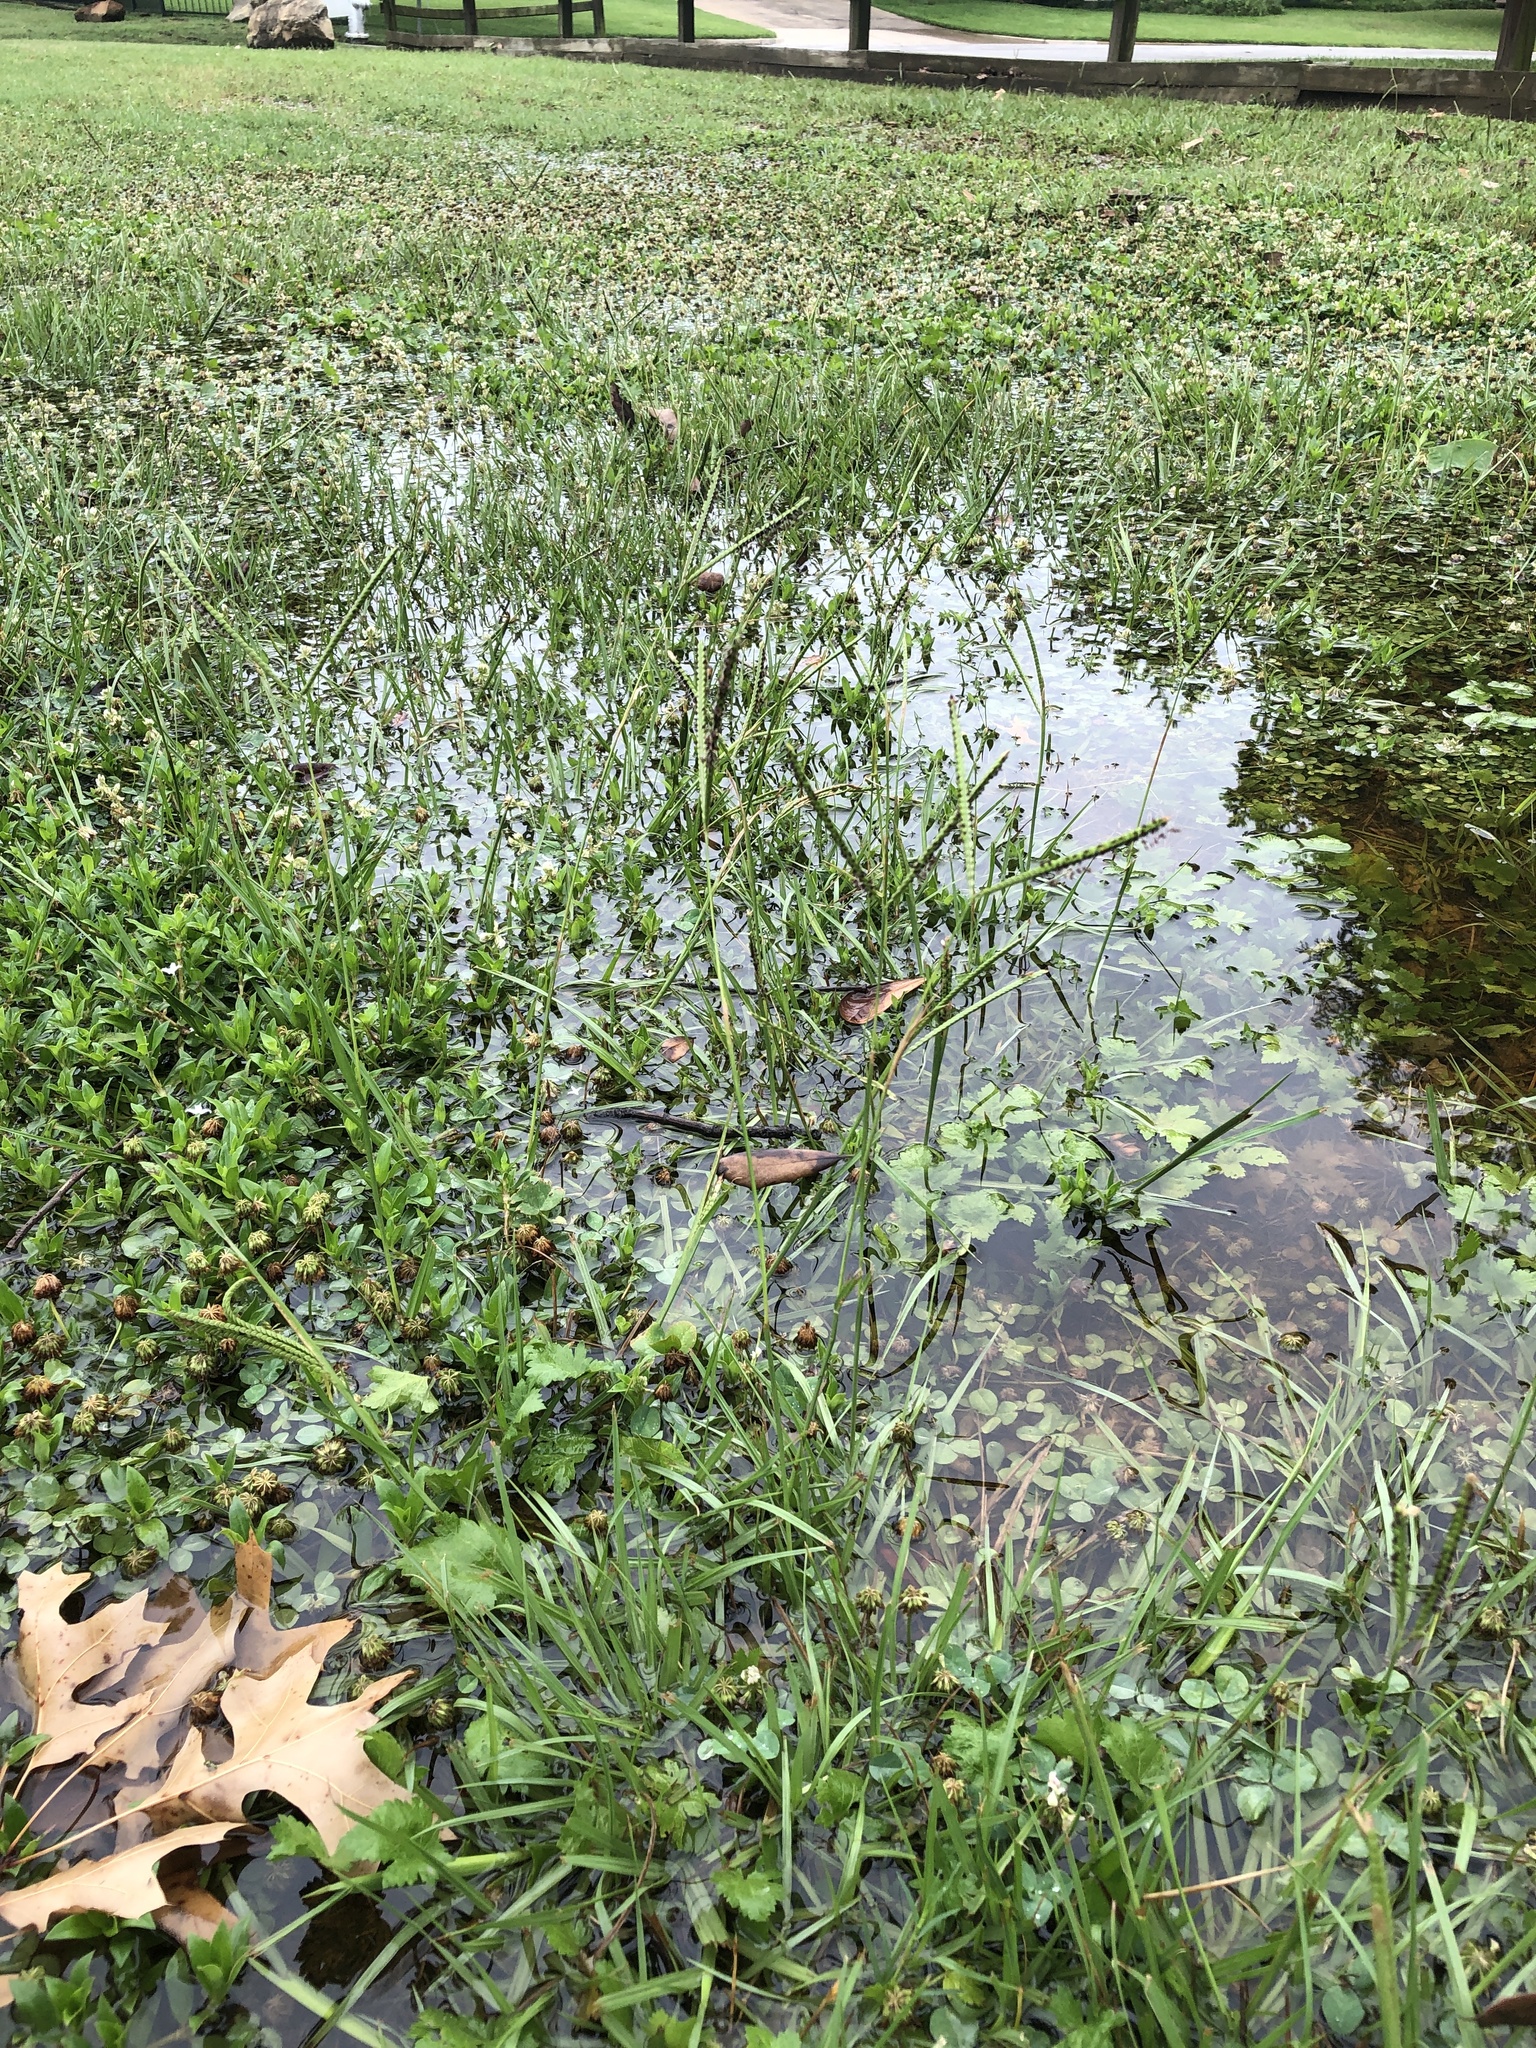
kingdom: Plantae
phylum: Tracheophyta
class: Liliopsida
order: Poales
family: Poaceae
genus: Paspalum
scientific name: Paspalum notatum
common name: Bahiagrass
